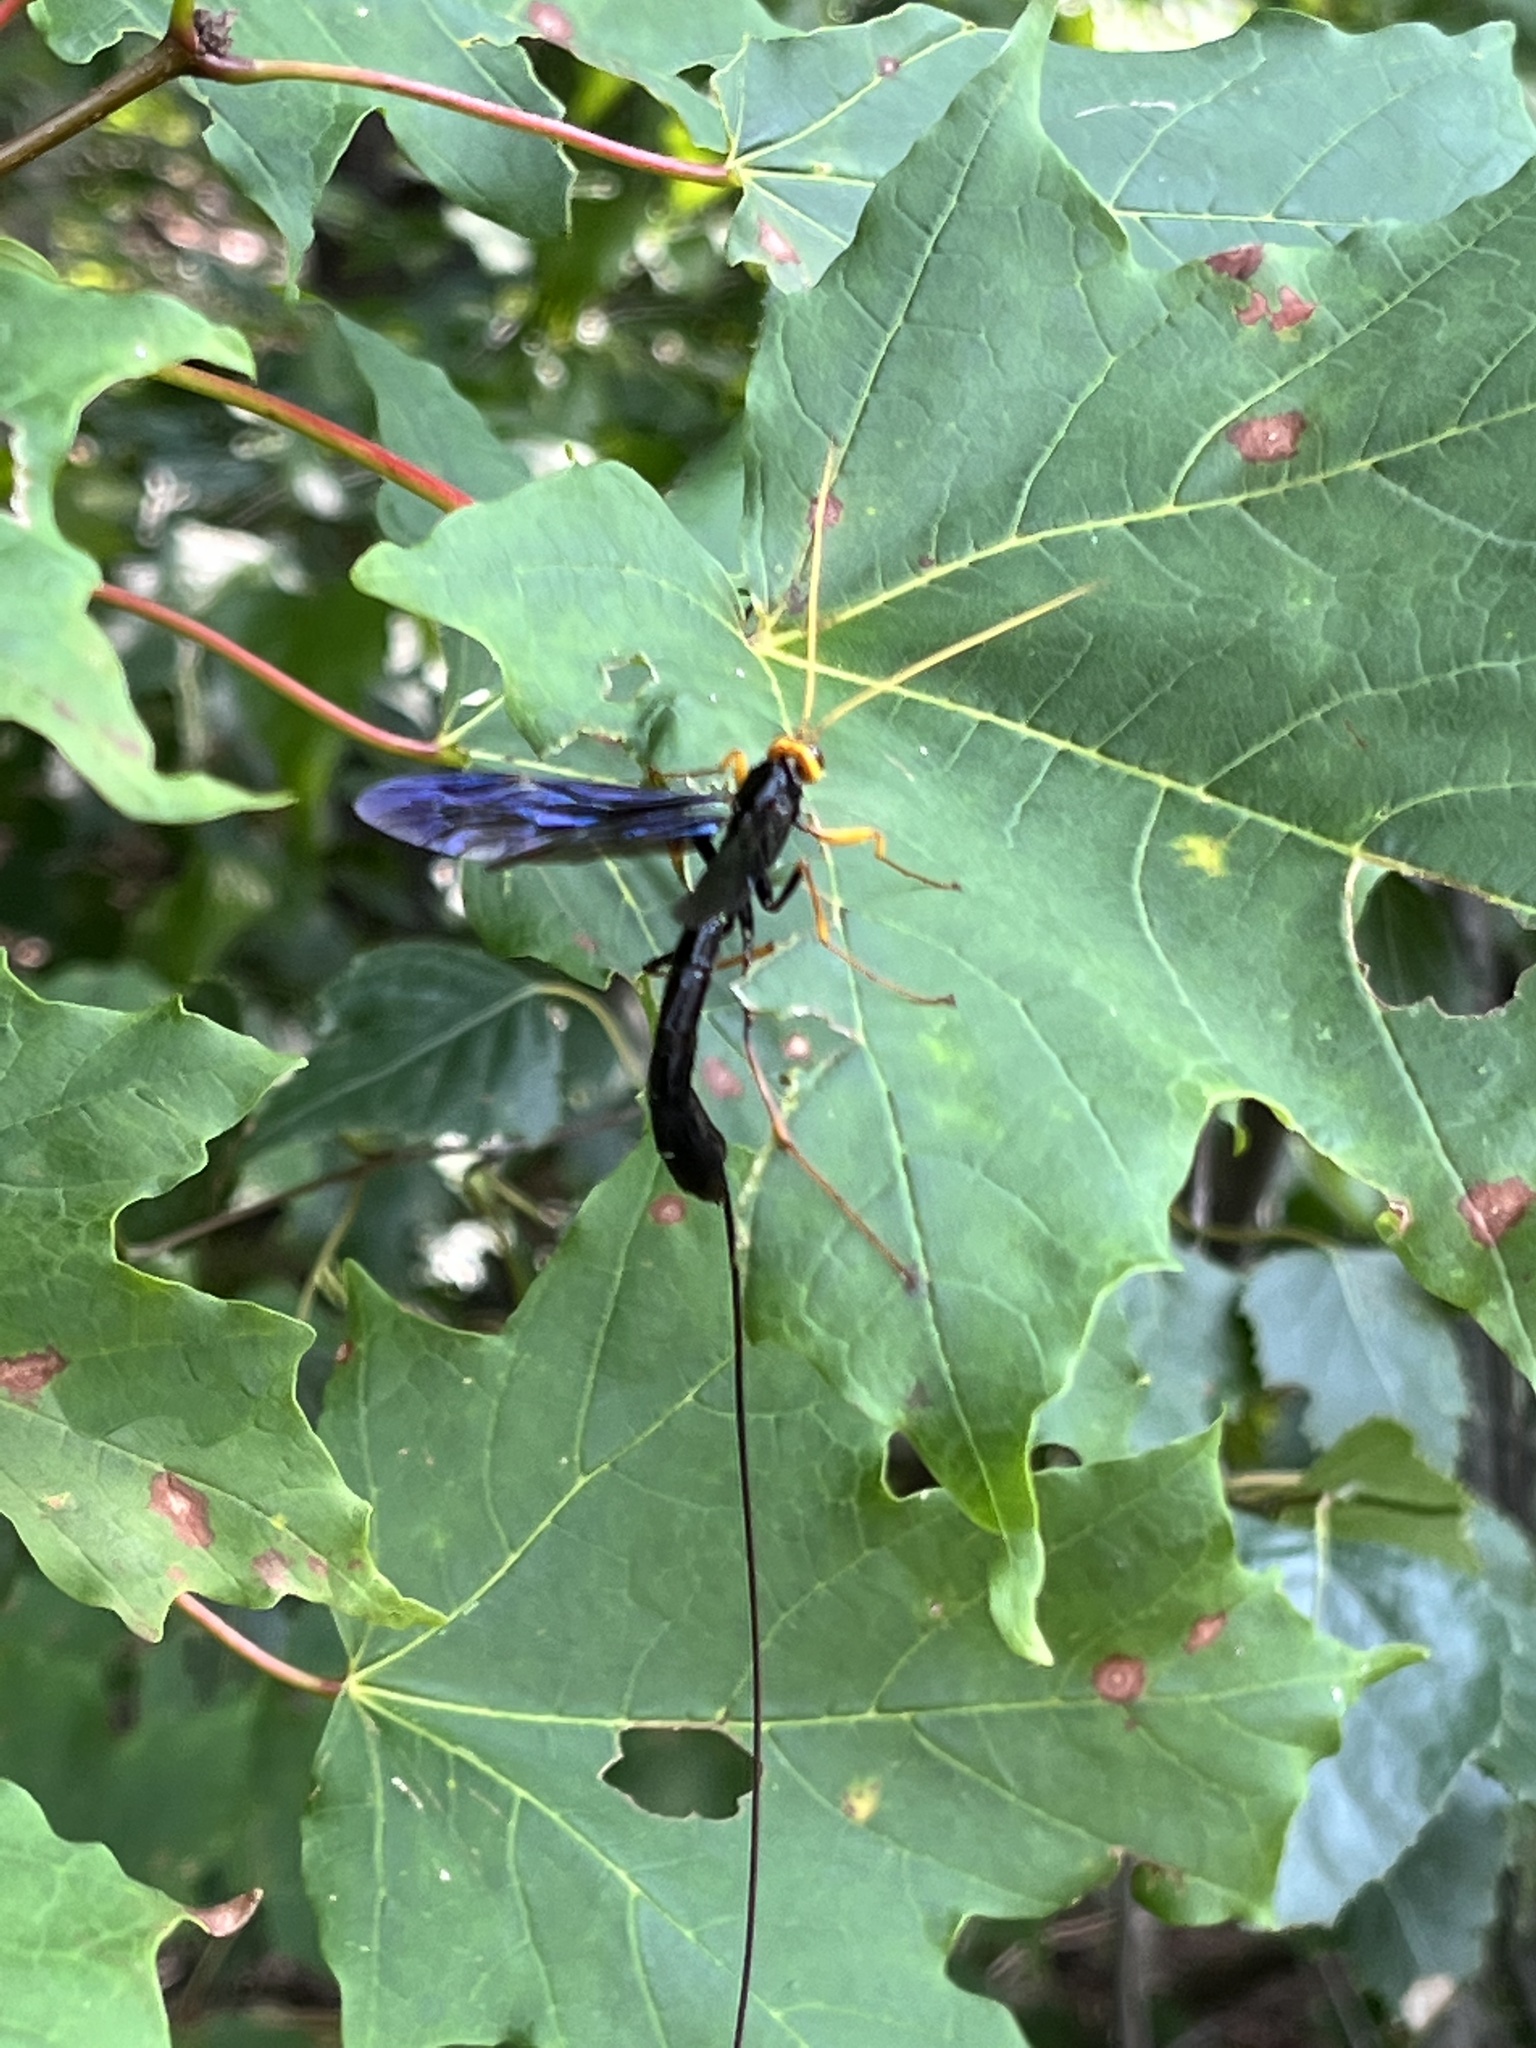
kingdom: Animalia
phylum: Arthropoda
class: Insecta
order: Hymenoptera
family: Ichneumonidae
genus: Megarhyssa
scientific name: Megarhyssa atrata
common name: Black giant ichneumonid wasp
